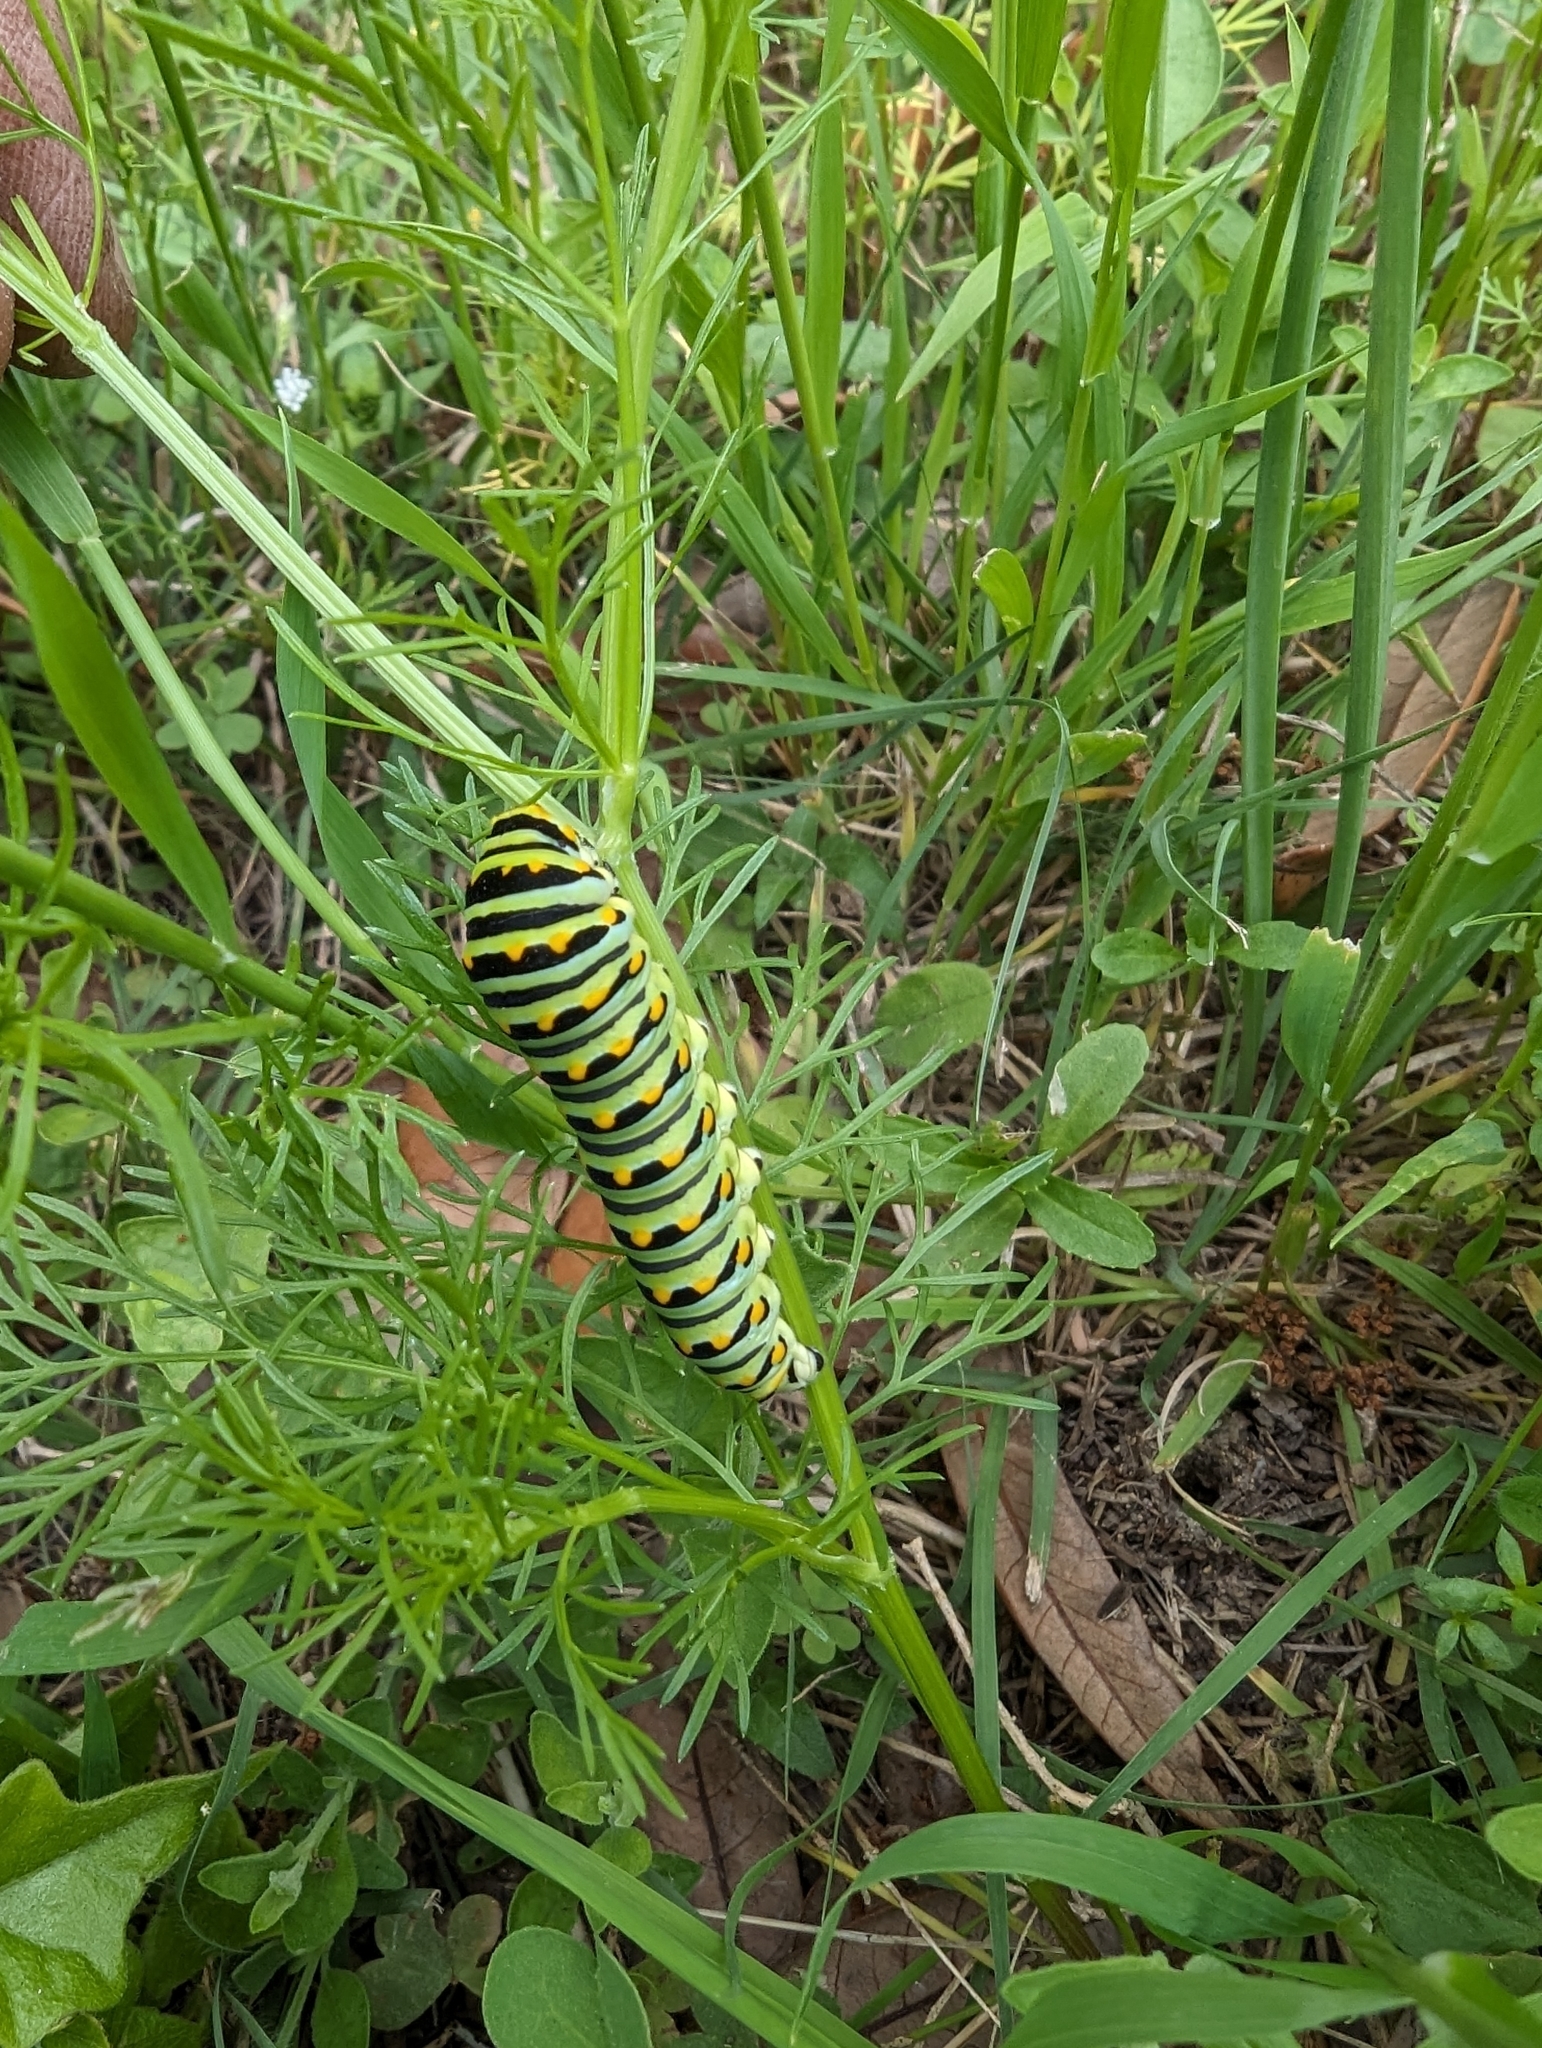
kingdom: Animalia
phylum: Arthropoda
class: Insecta
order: Lepidoptera
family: Papilionidae
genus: Papilio
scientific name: Papilio polyxenes
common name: Black swallowtail
